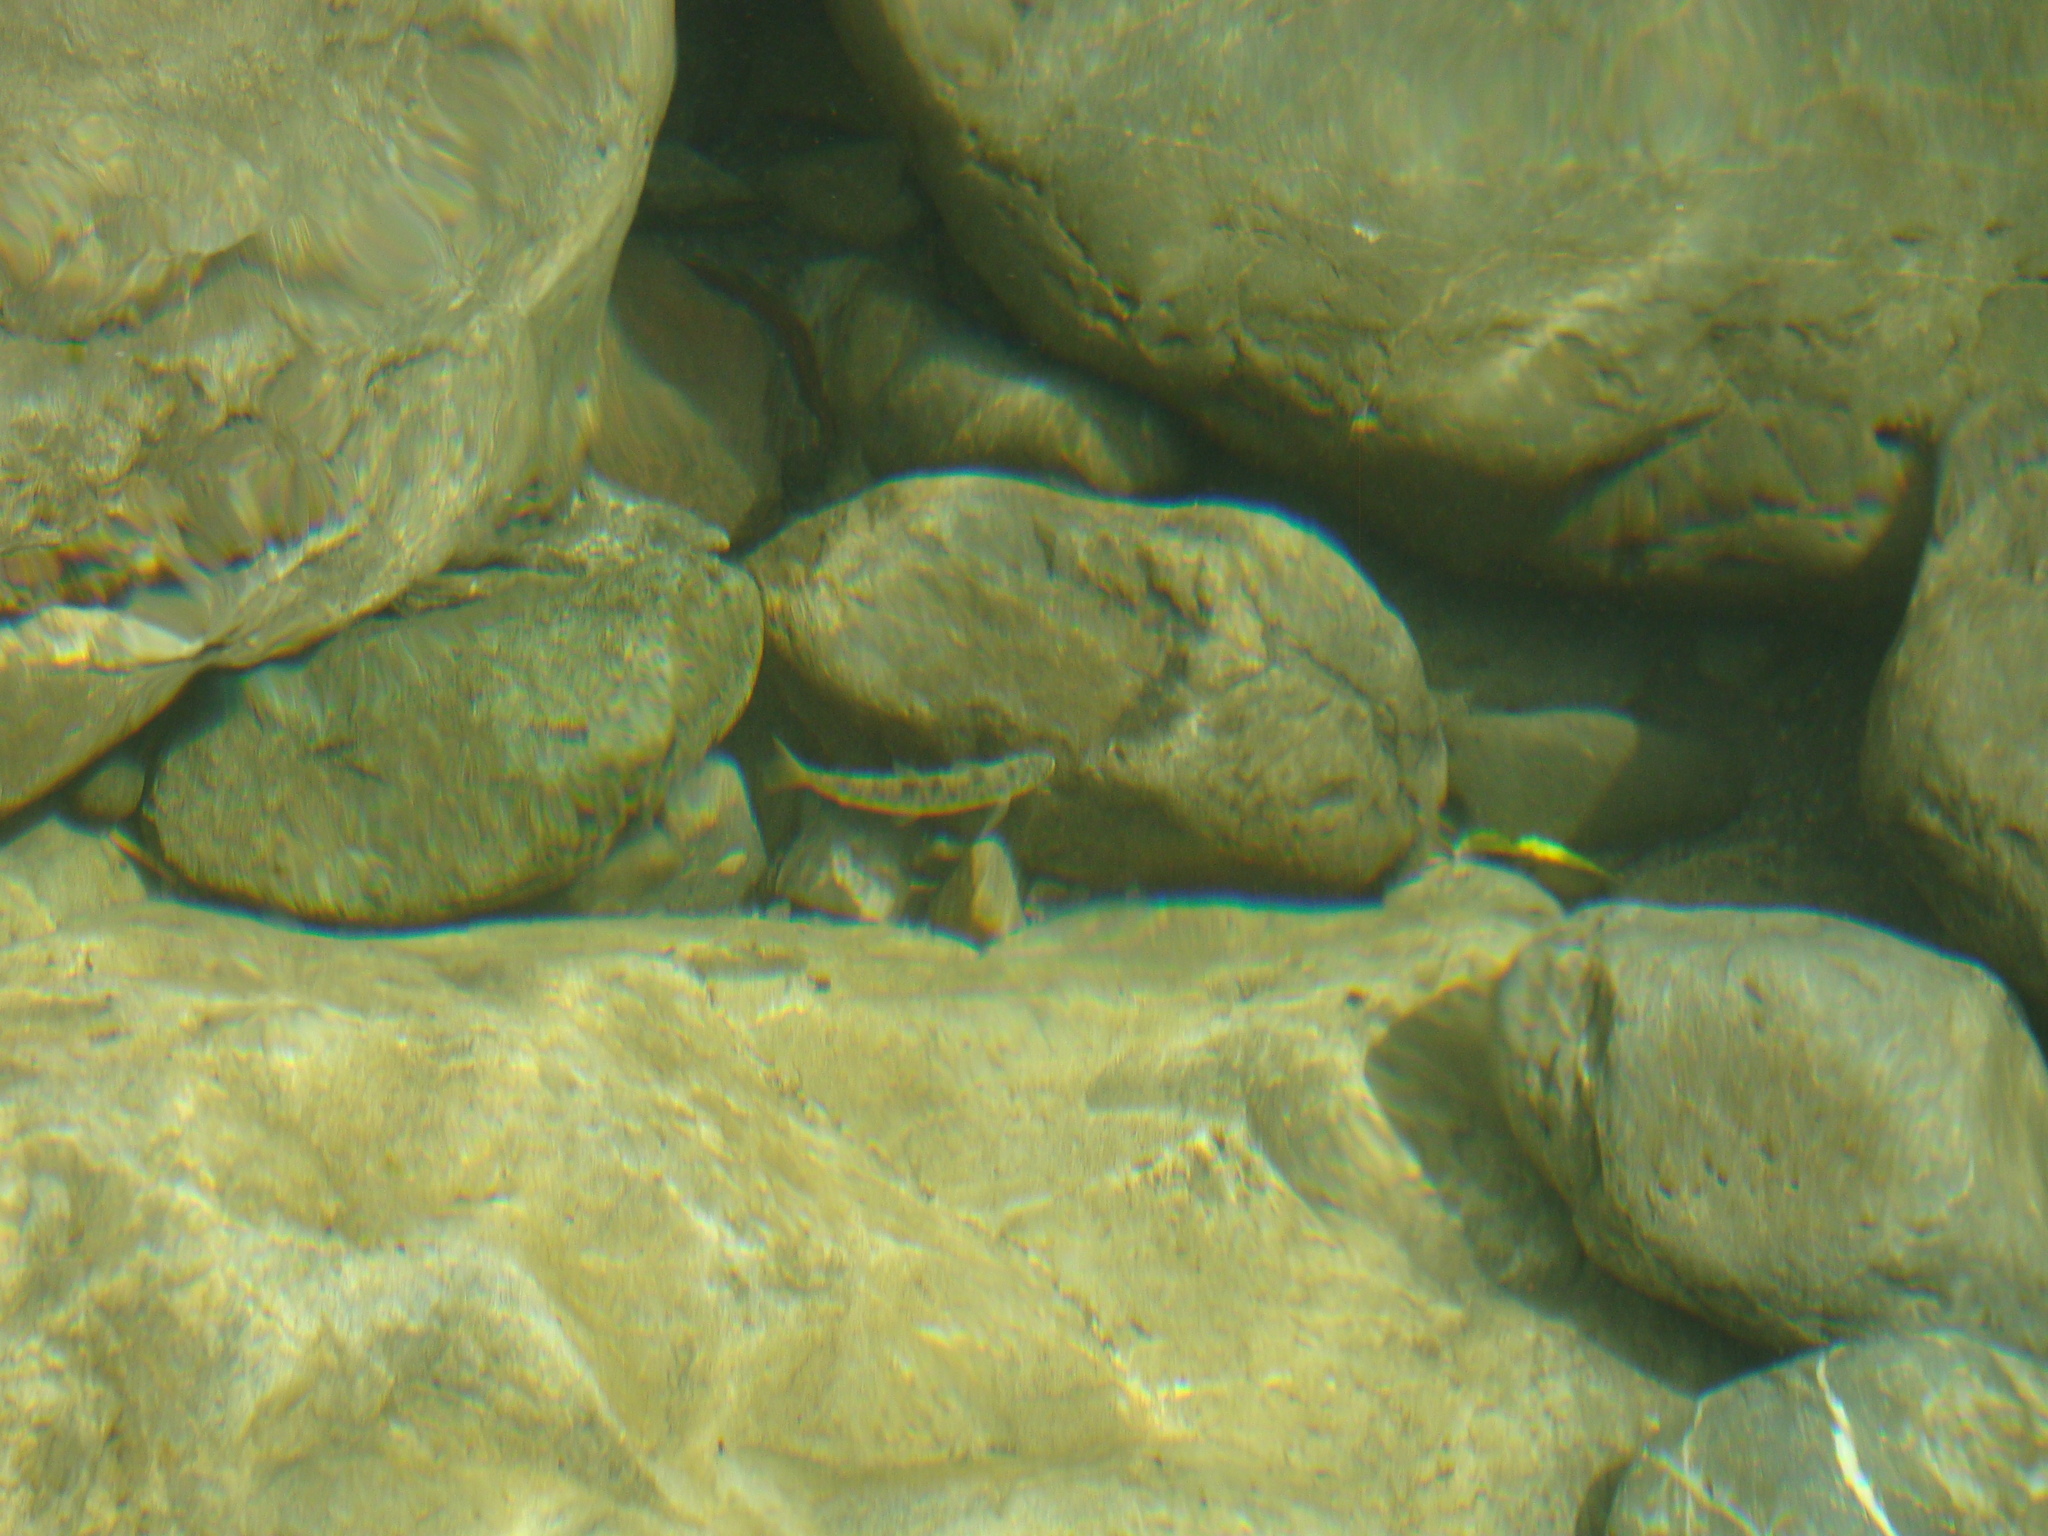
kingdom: Animalia
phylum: Chordata
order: Salmoniformes
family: Salmonidae
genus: Salmo
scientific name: Salmo trutta
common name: Brown trout
